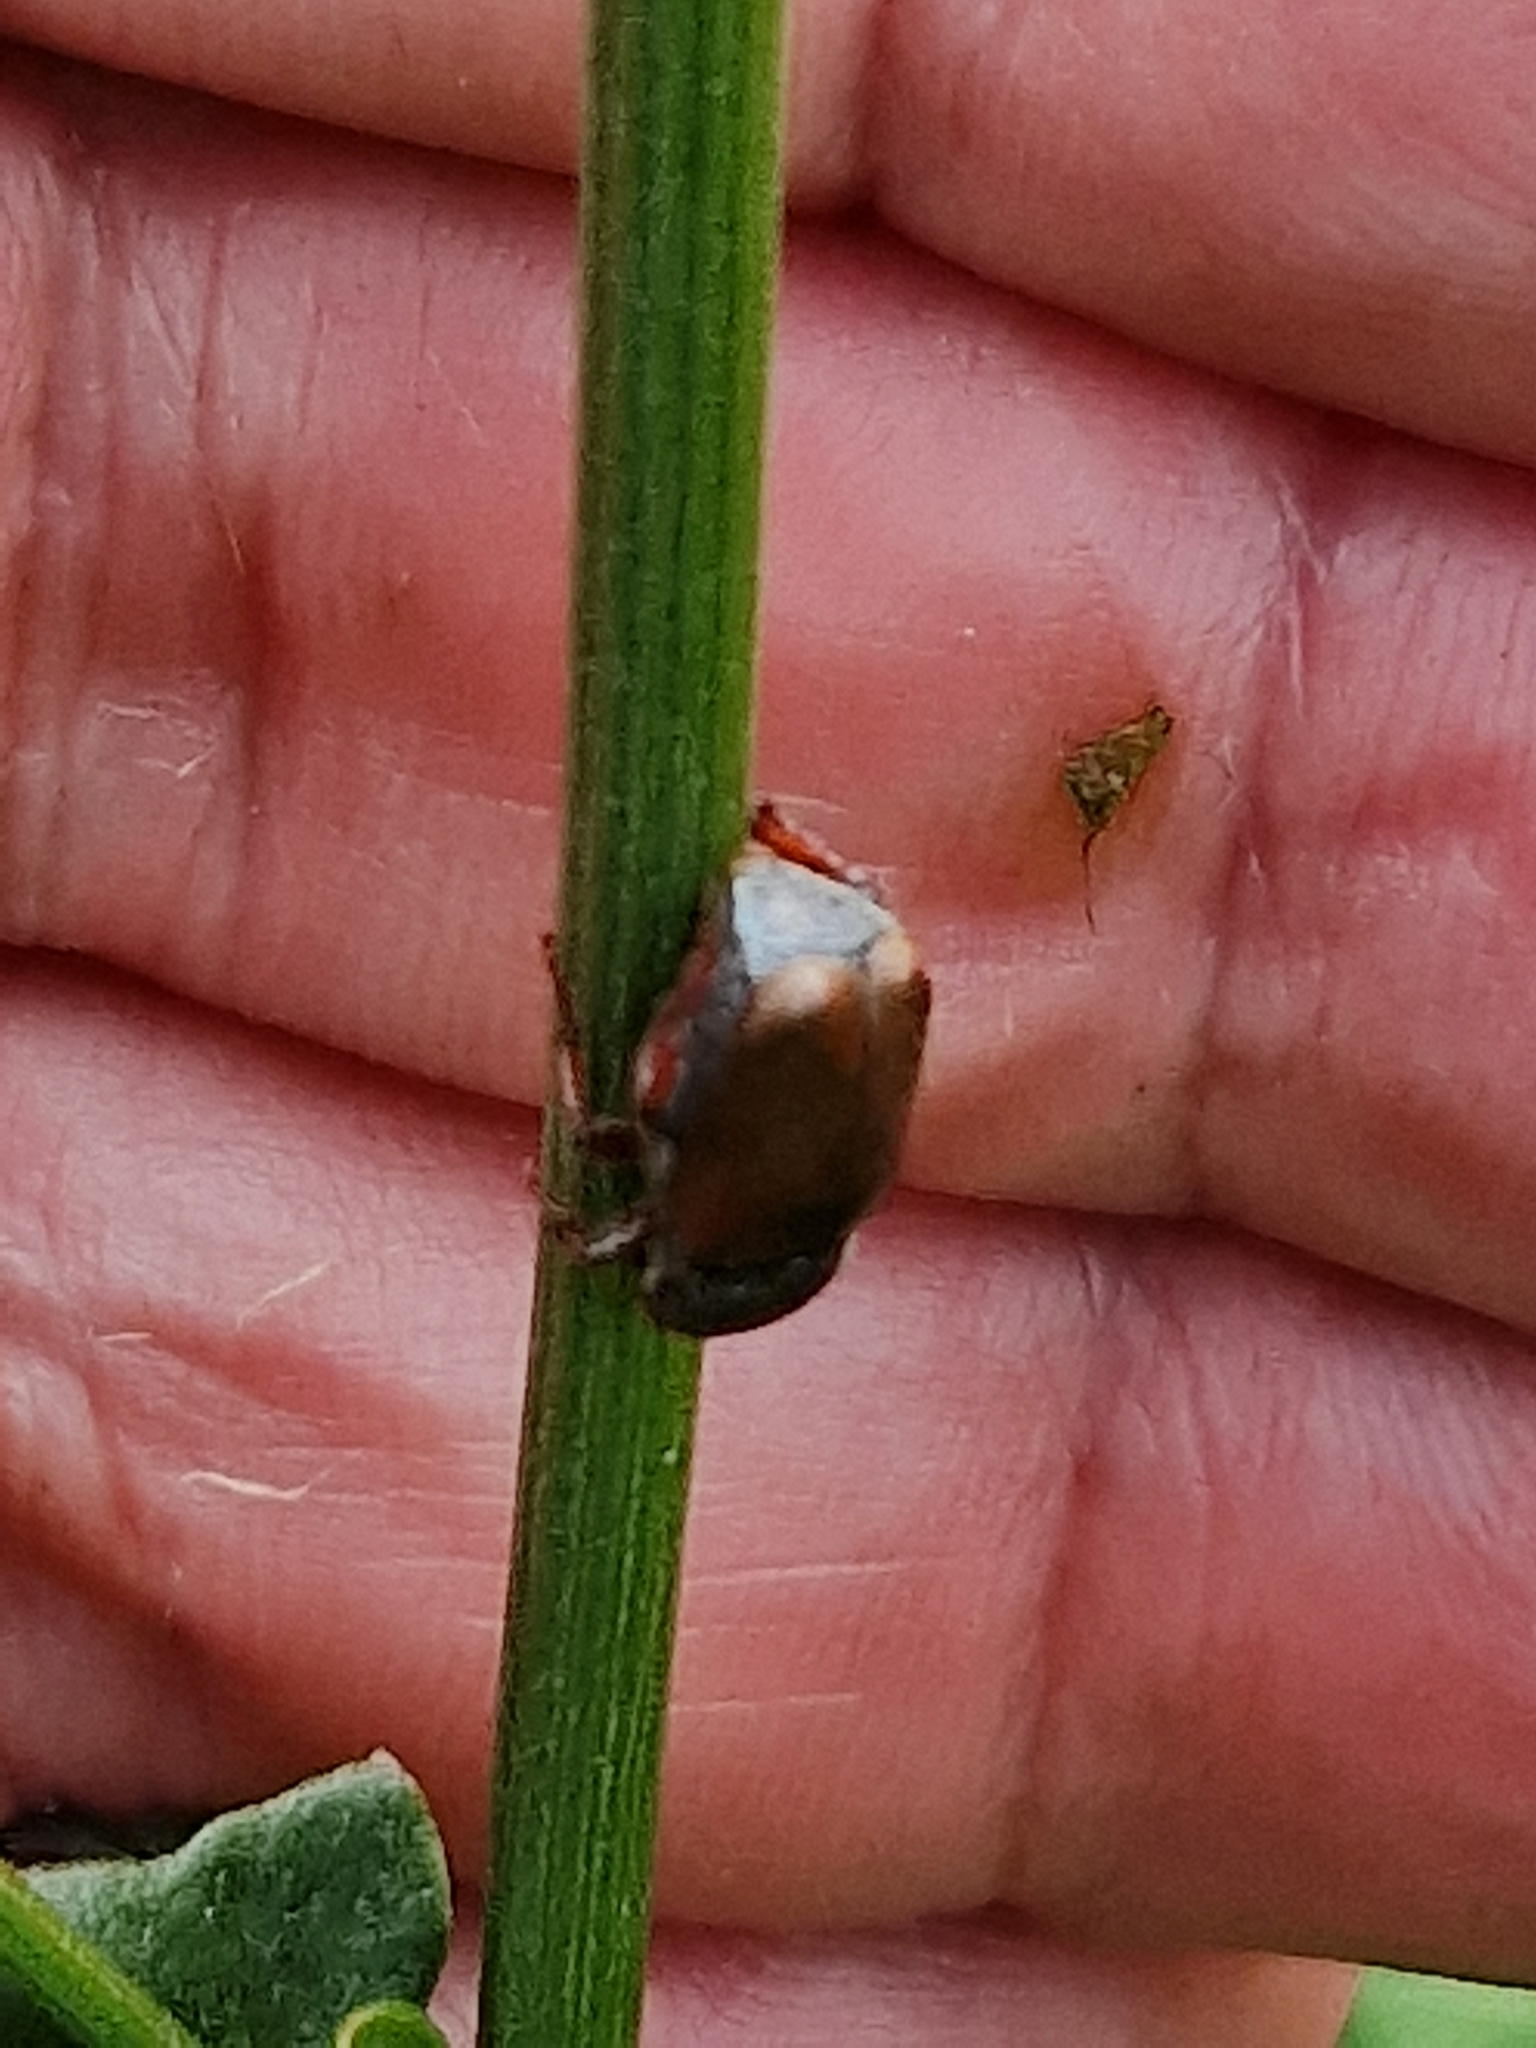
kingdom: Animalia
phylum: Arthropoda
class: Insecta
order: Coleoptera
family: Scarabaeidae
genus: Hoplia
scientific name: Hoplia philanthus
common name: Welsh chafer
